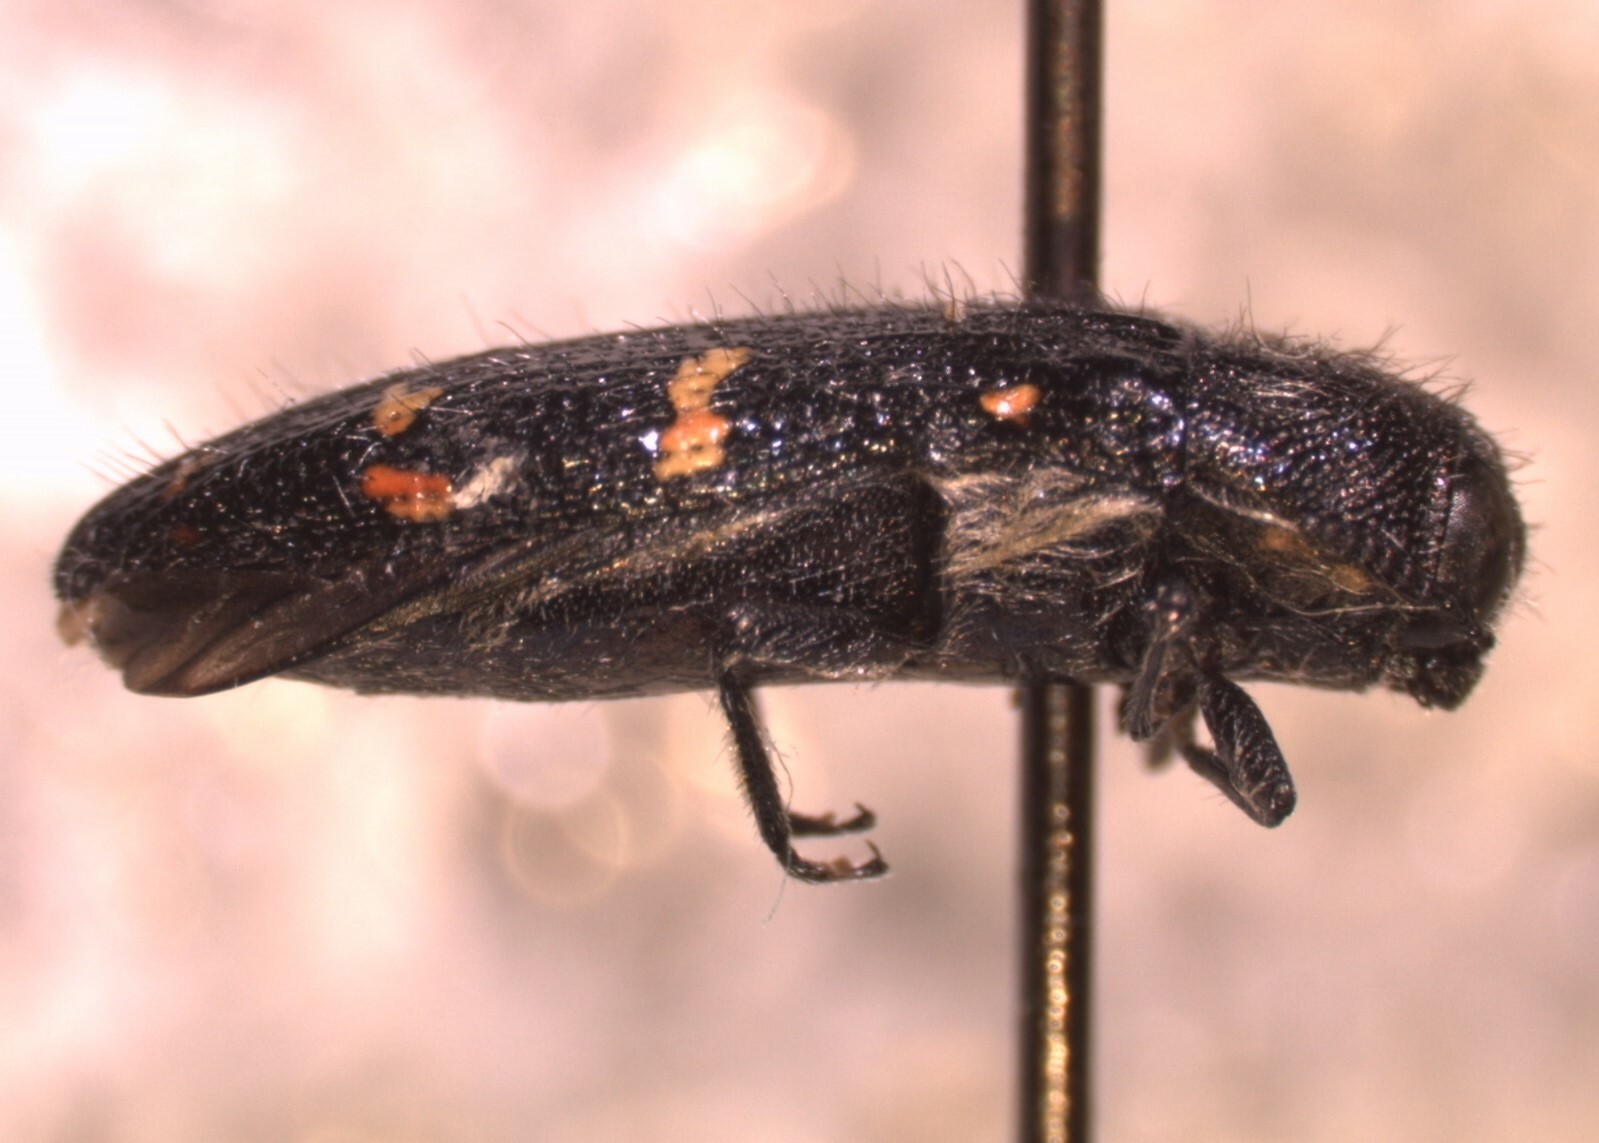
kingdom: Animalia
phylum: Arthropoda
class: Insecta
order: Coleoptera
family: Buprestidae
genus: Acmaeodera
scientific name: Acmaeodera angelica
